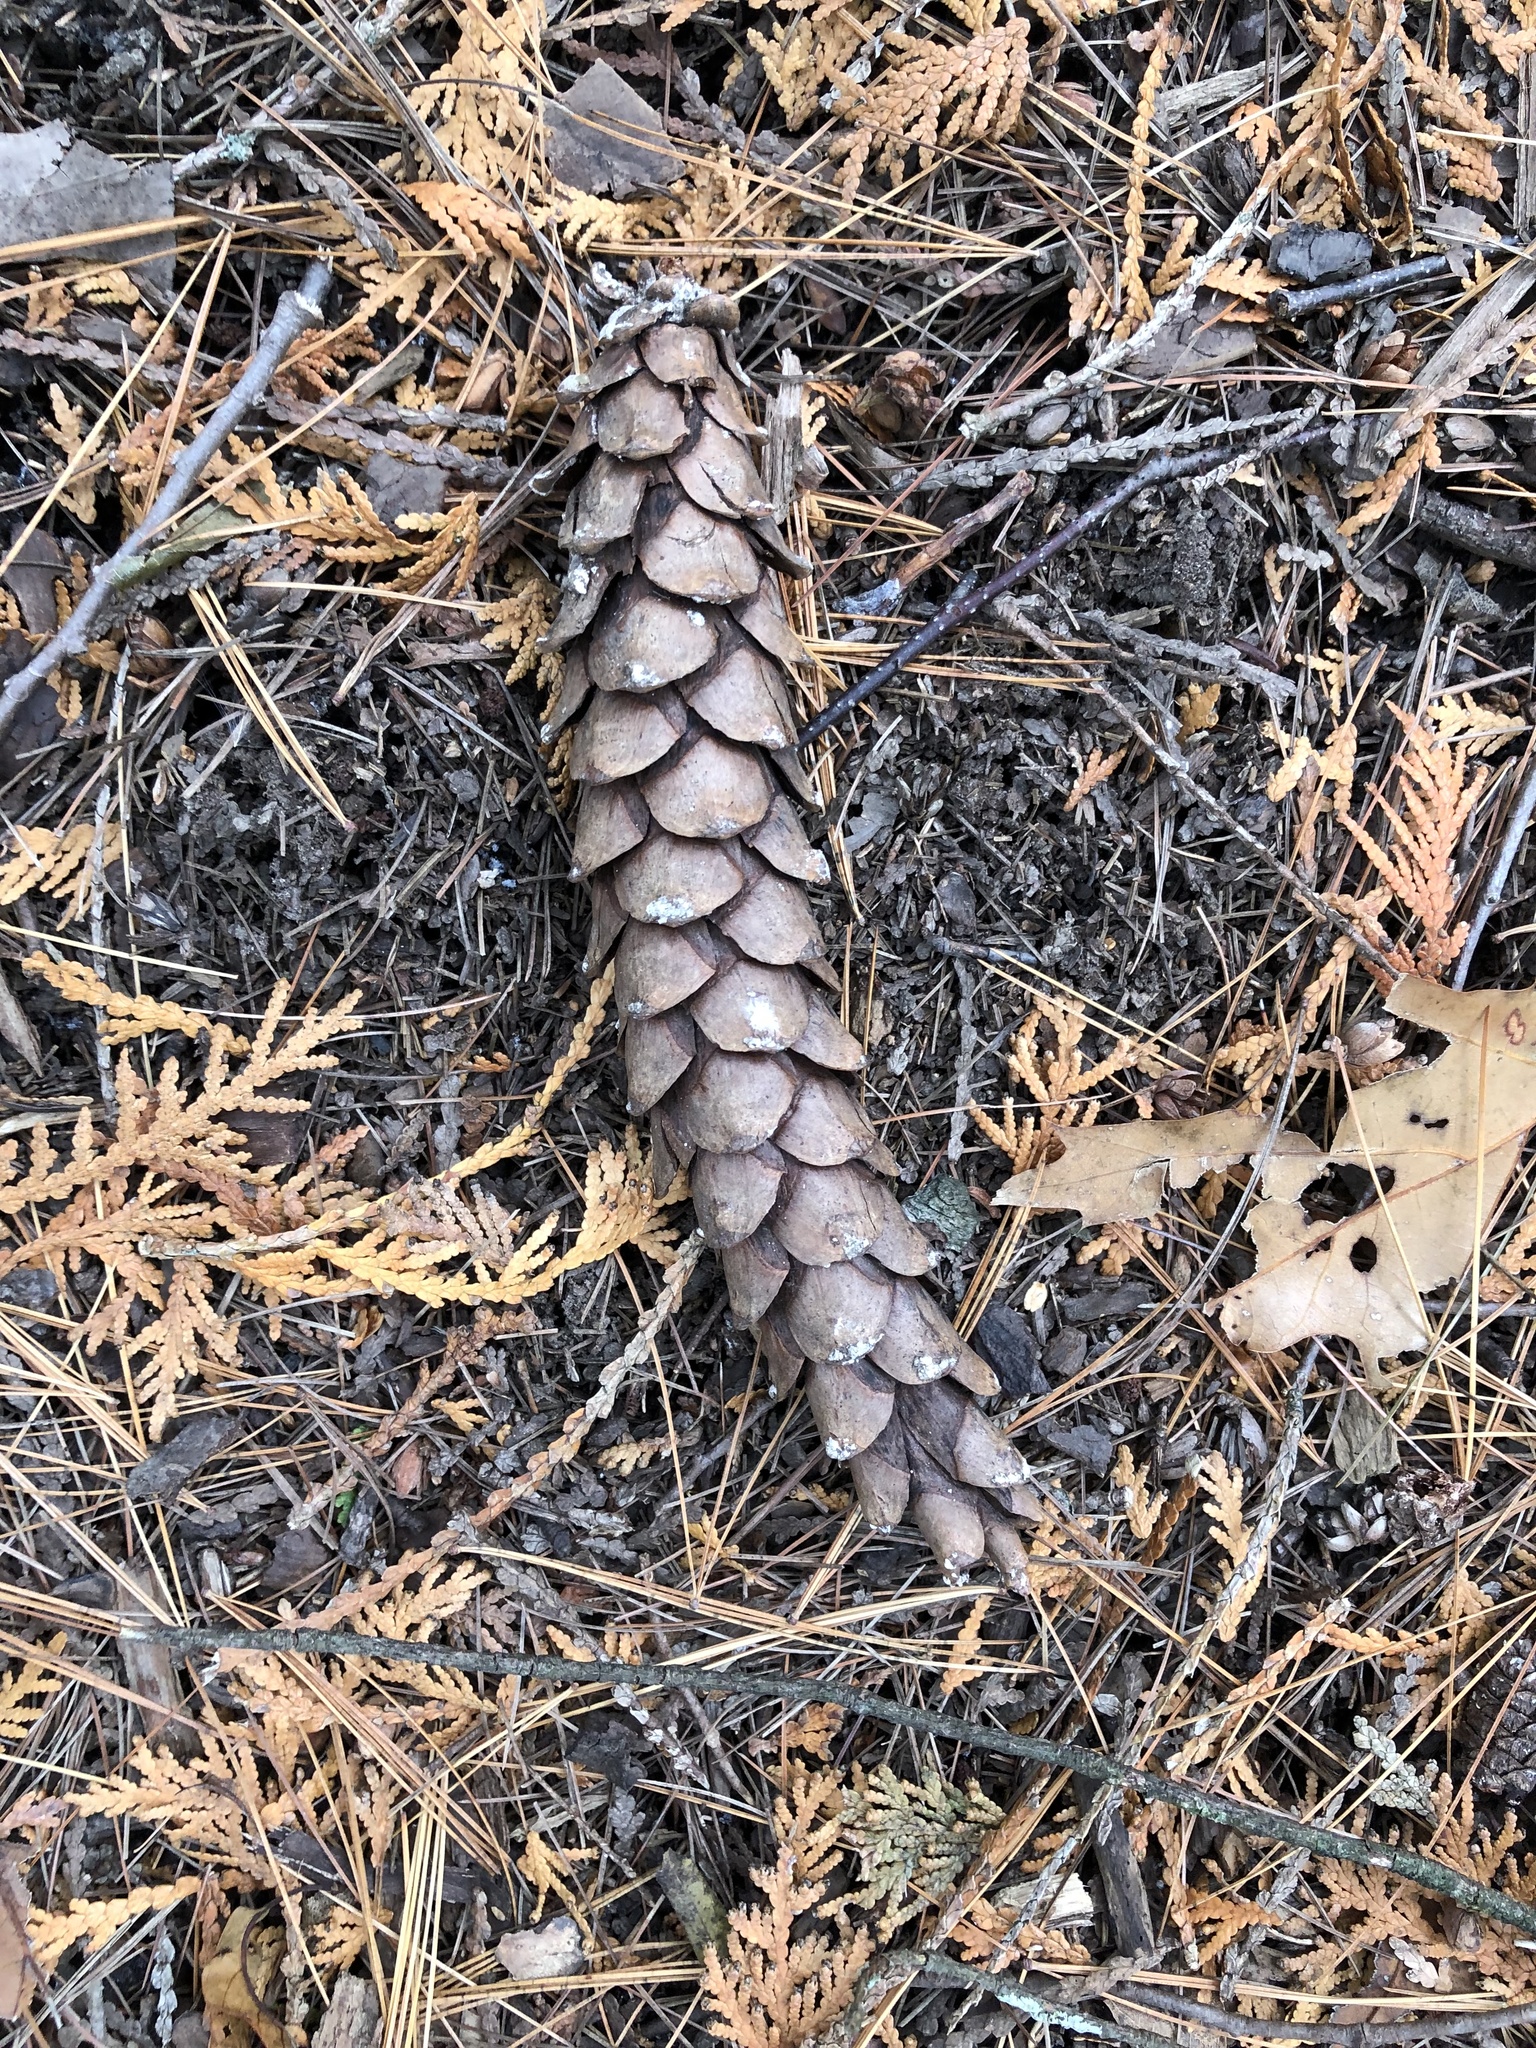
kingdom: Plantae
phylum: Tracheophyta
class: Pinopsida
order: Pinales
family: Pinaceae
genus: Pinus
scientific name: Pinus strobus
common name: Weymouth pine
